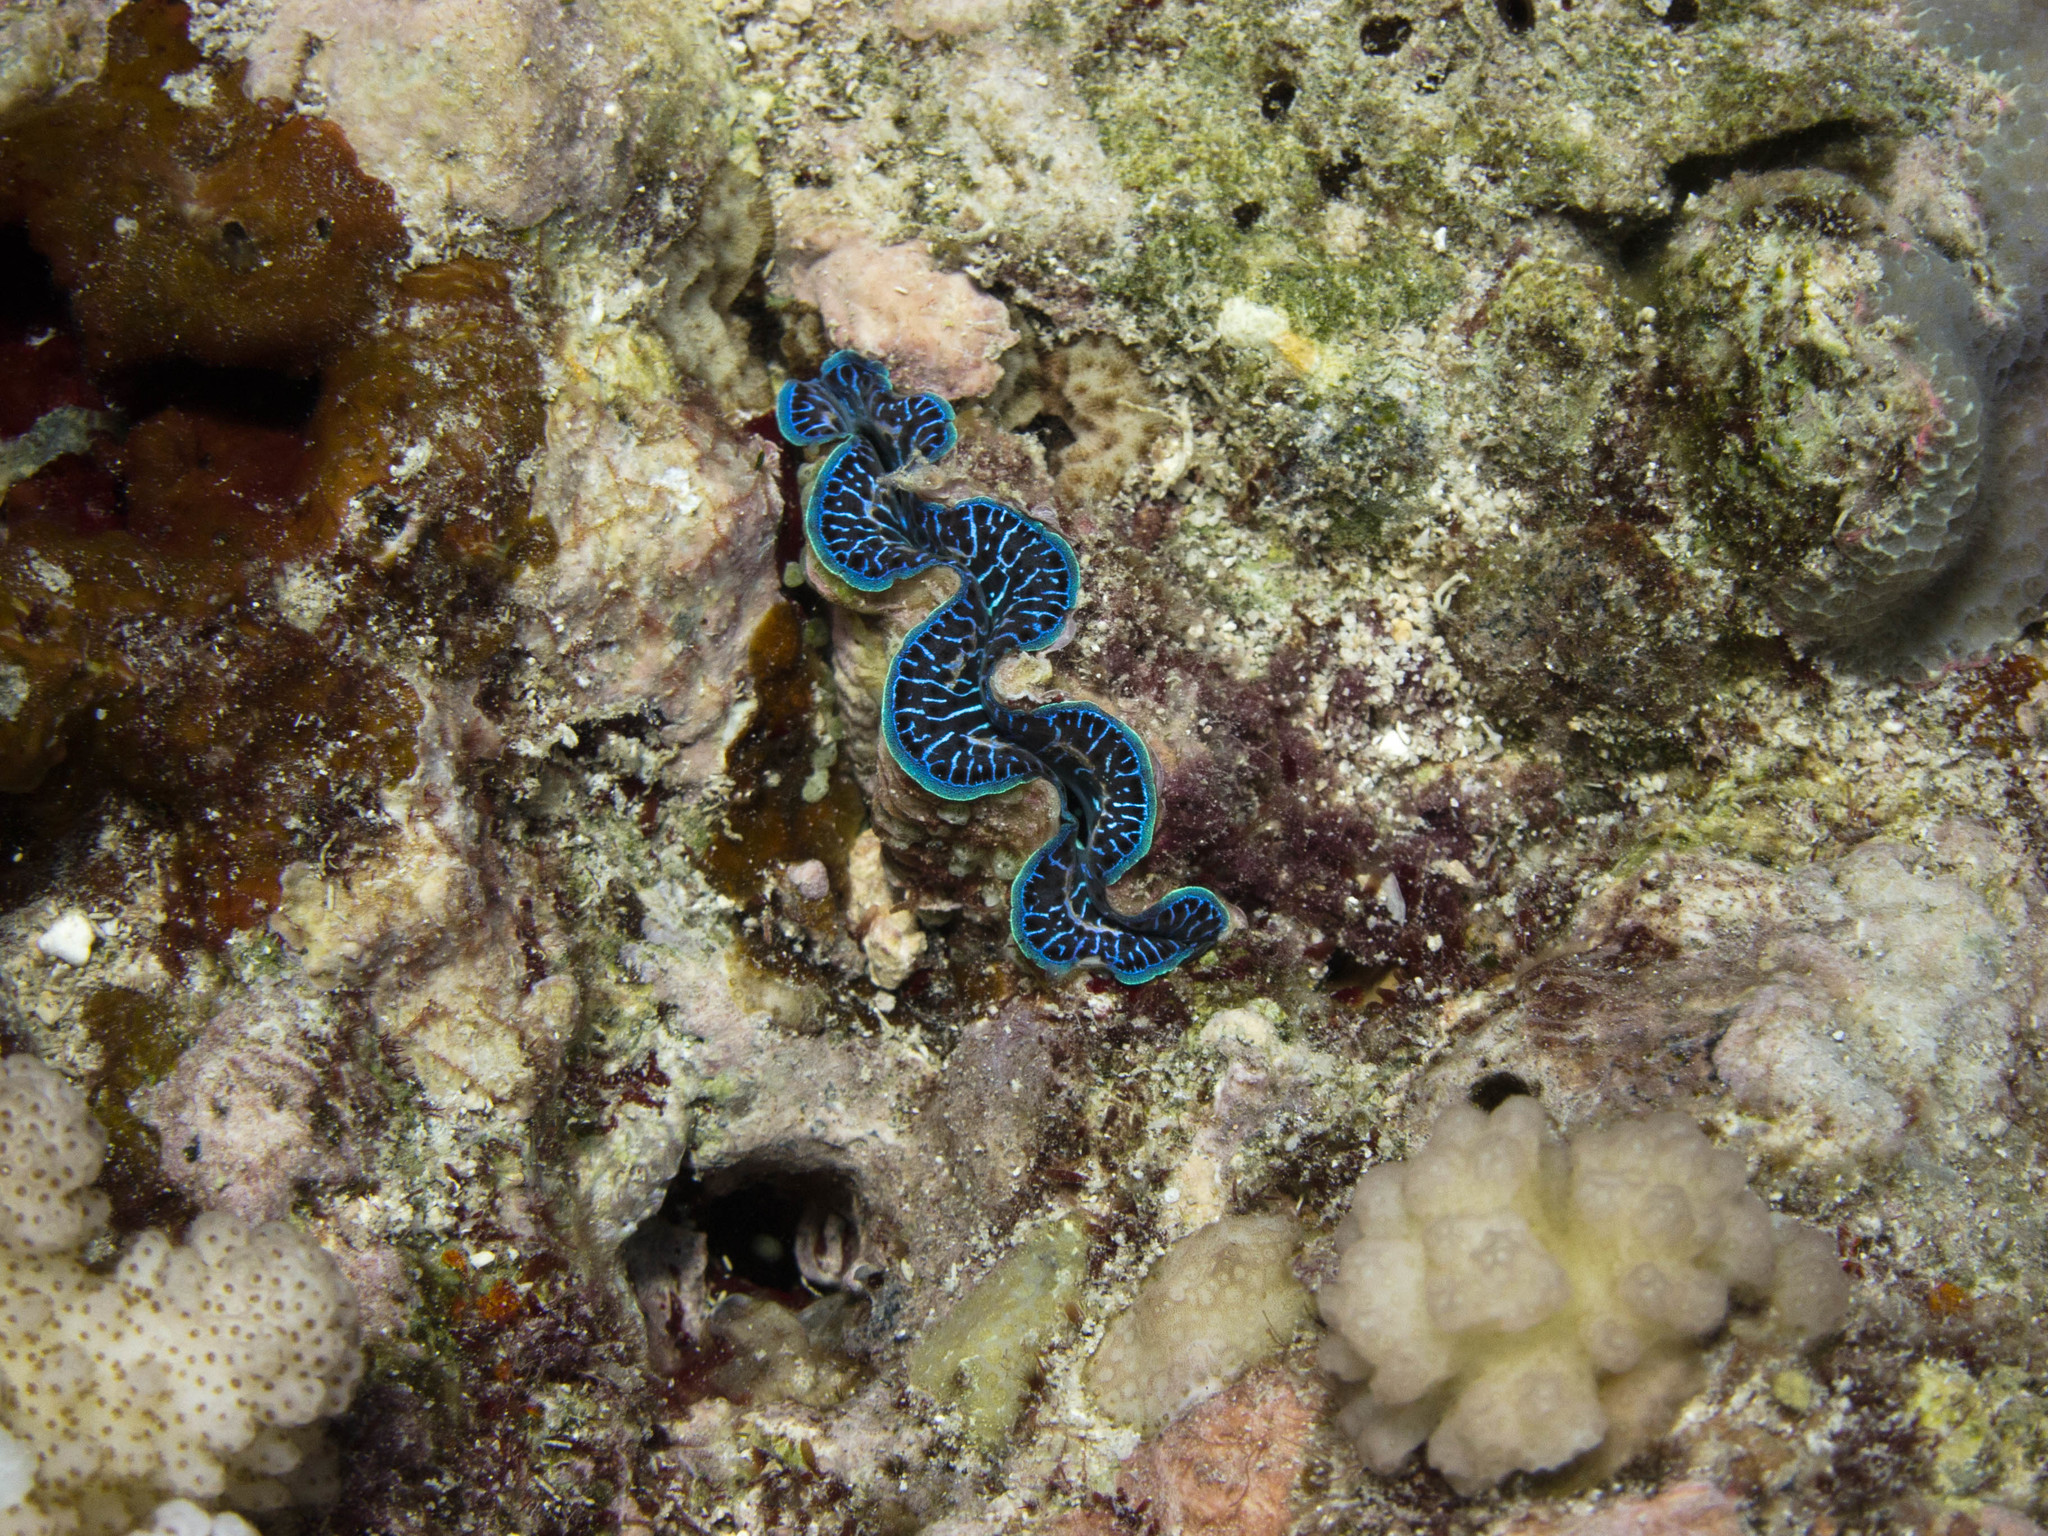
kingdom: Animalia
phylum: Mollusca
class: Bivalvia
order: Cardiida
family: Cardiidae
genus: Tridacna
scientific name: Tridacna maxima
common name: Small giant clam
